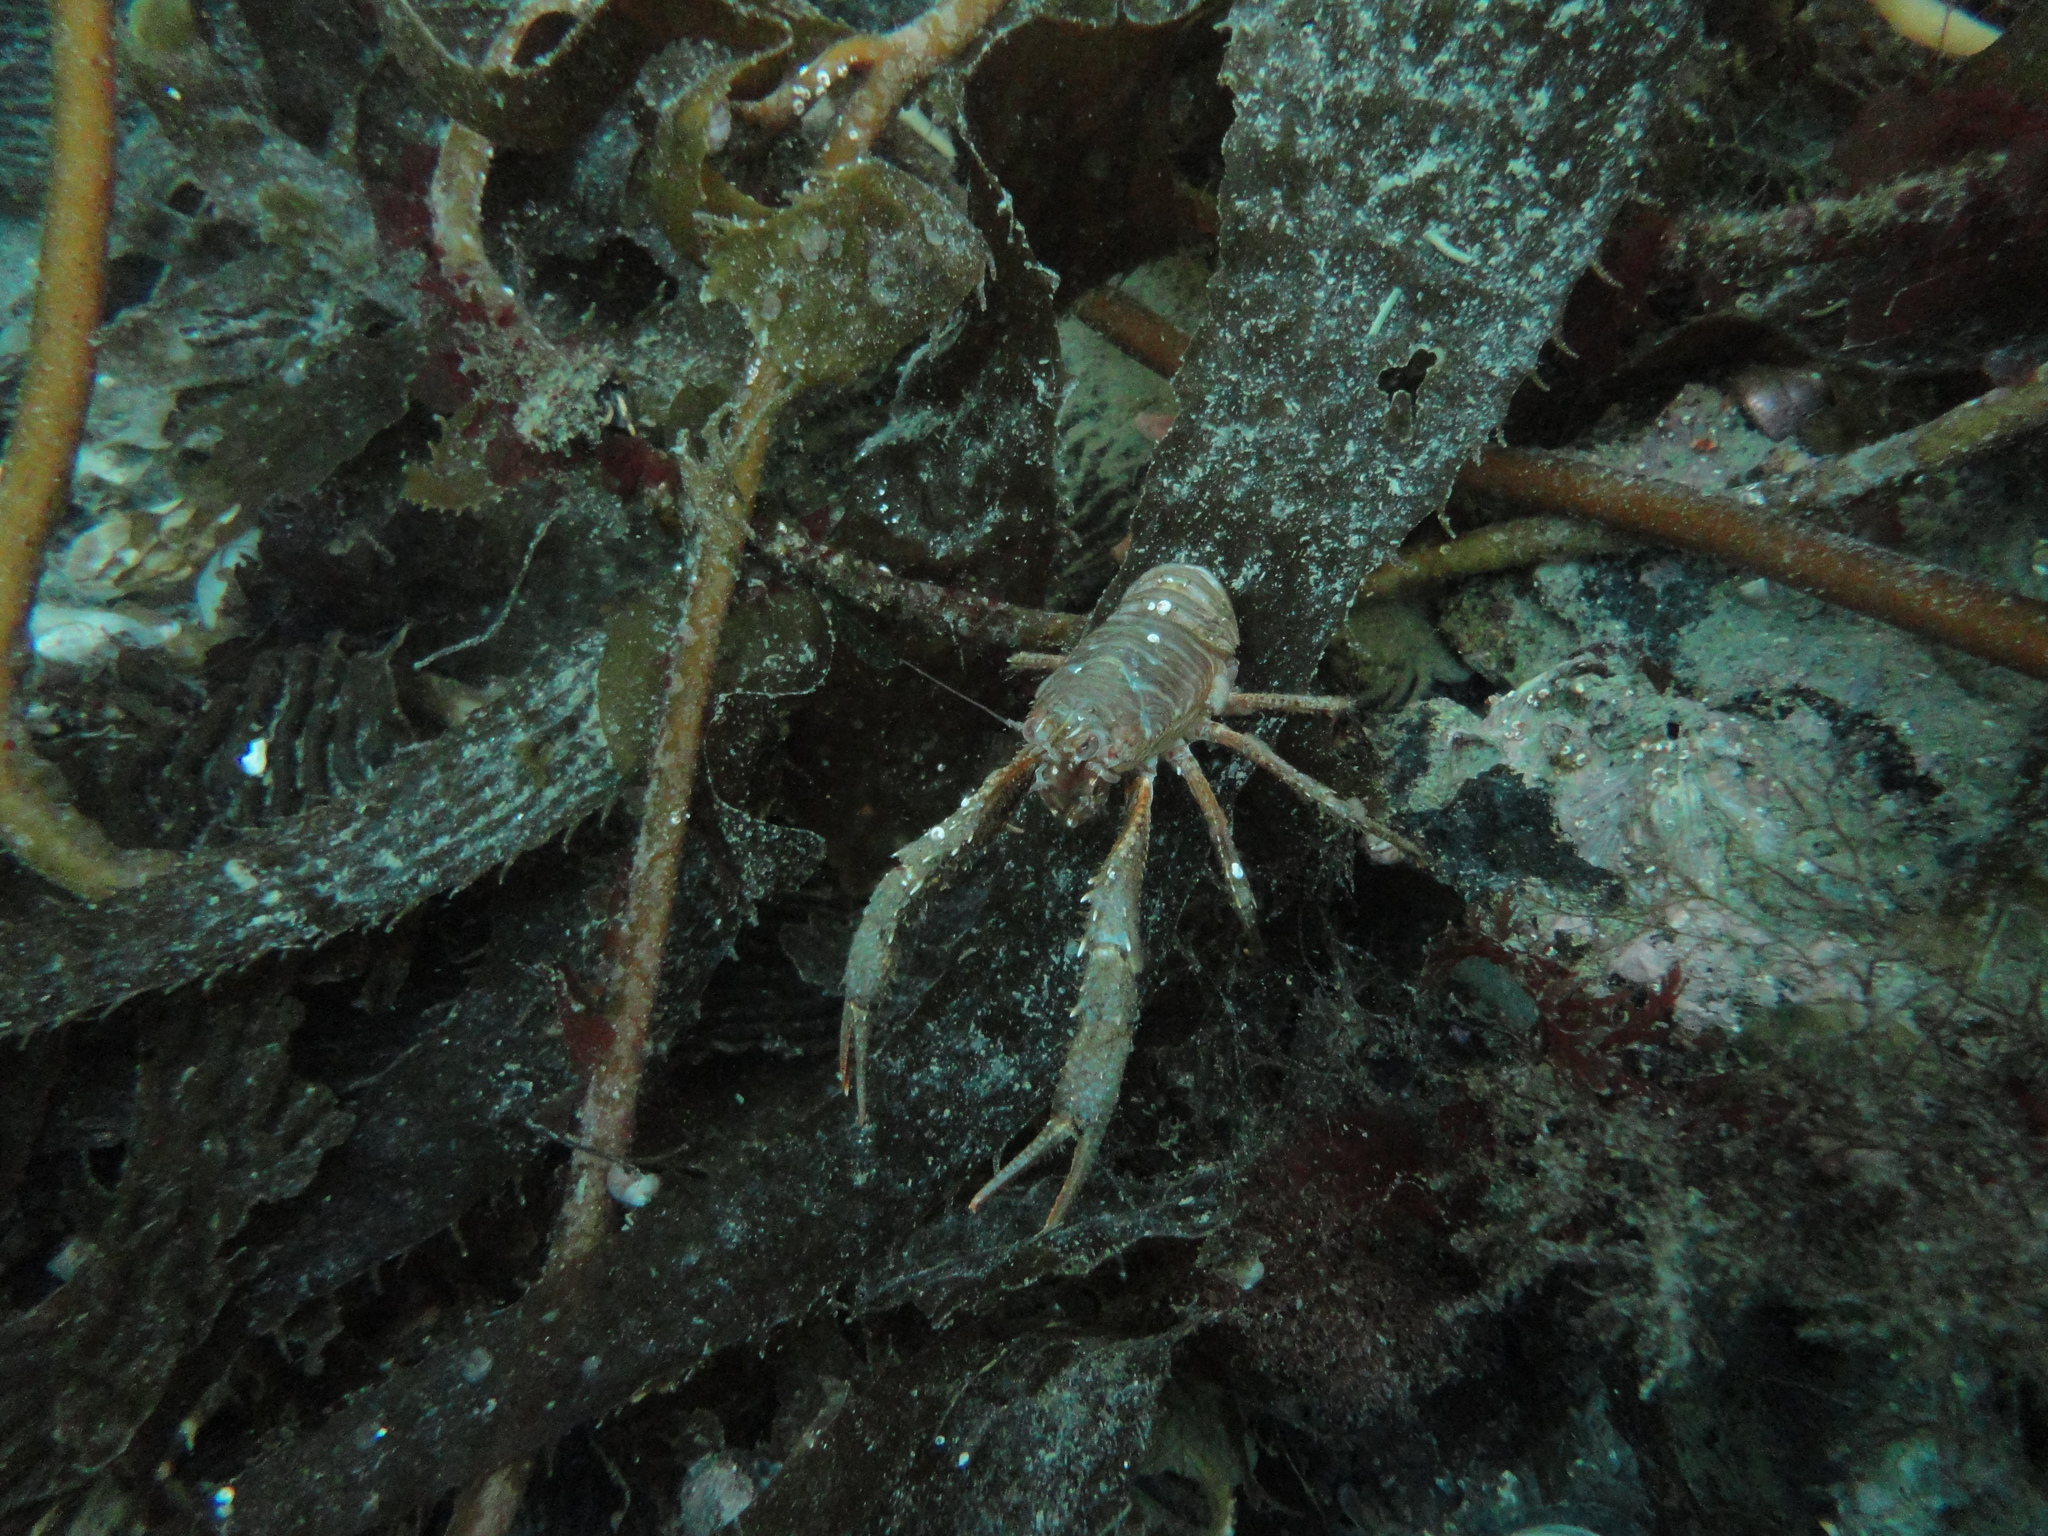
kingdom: Animalia
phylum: Arthropoda
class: Malacostraca
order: Decapoda
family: Munididae
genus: Grimothea
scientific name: Grimothea gregaria
